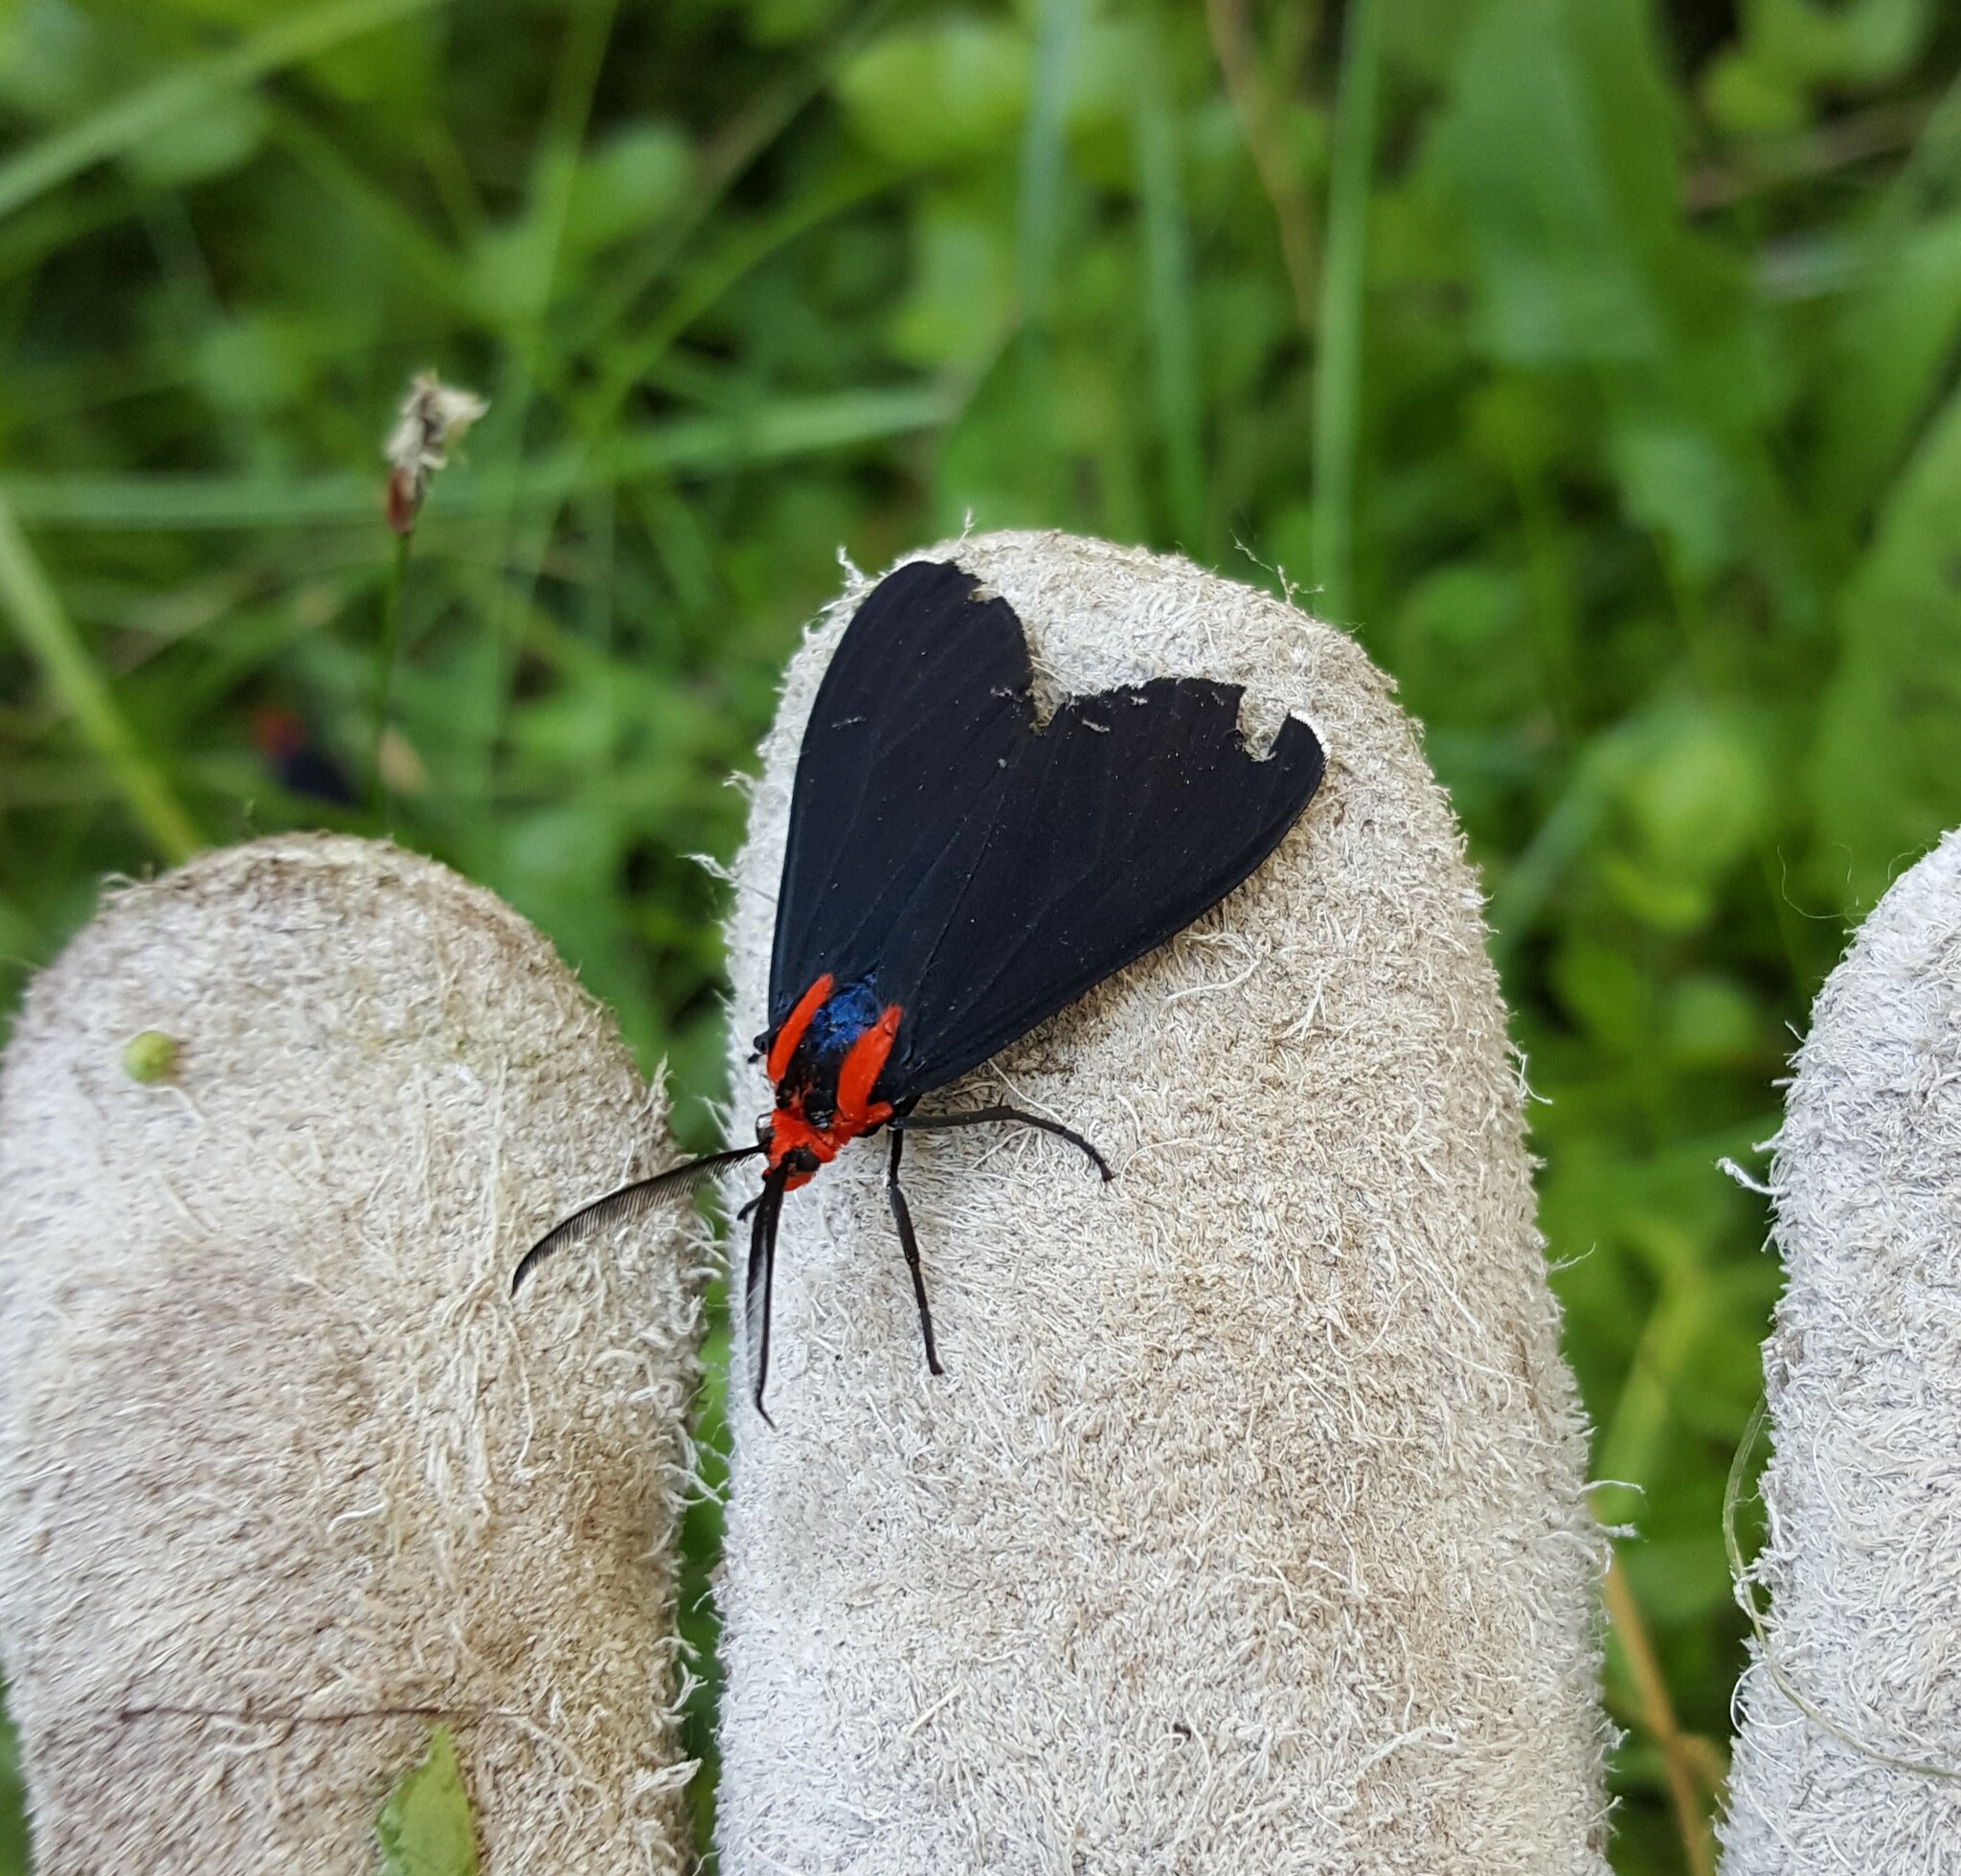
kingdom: Animalia
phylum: Arthropoda
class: Insecta
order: Lepidoptera
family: Erebidae
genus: Ctenucha
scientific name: Ctenucha rubroscapus
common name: Red-shouldered ctenucha
